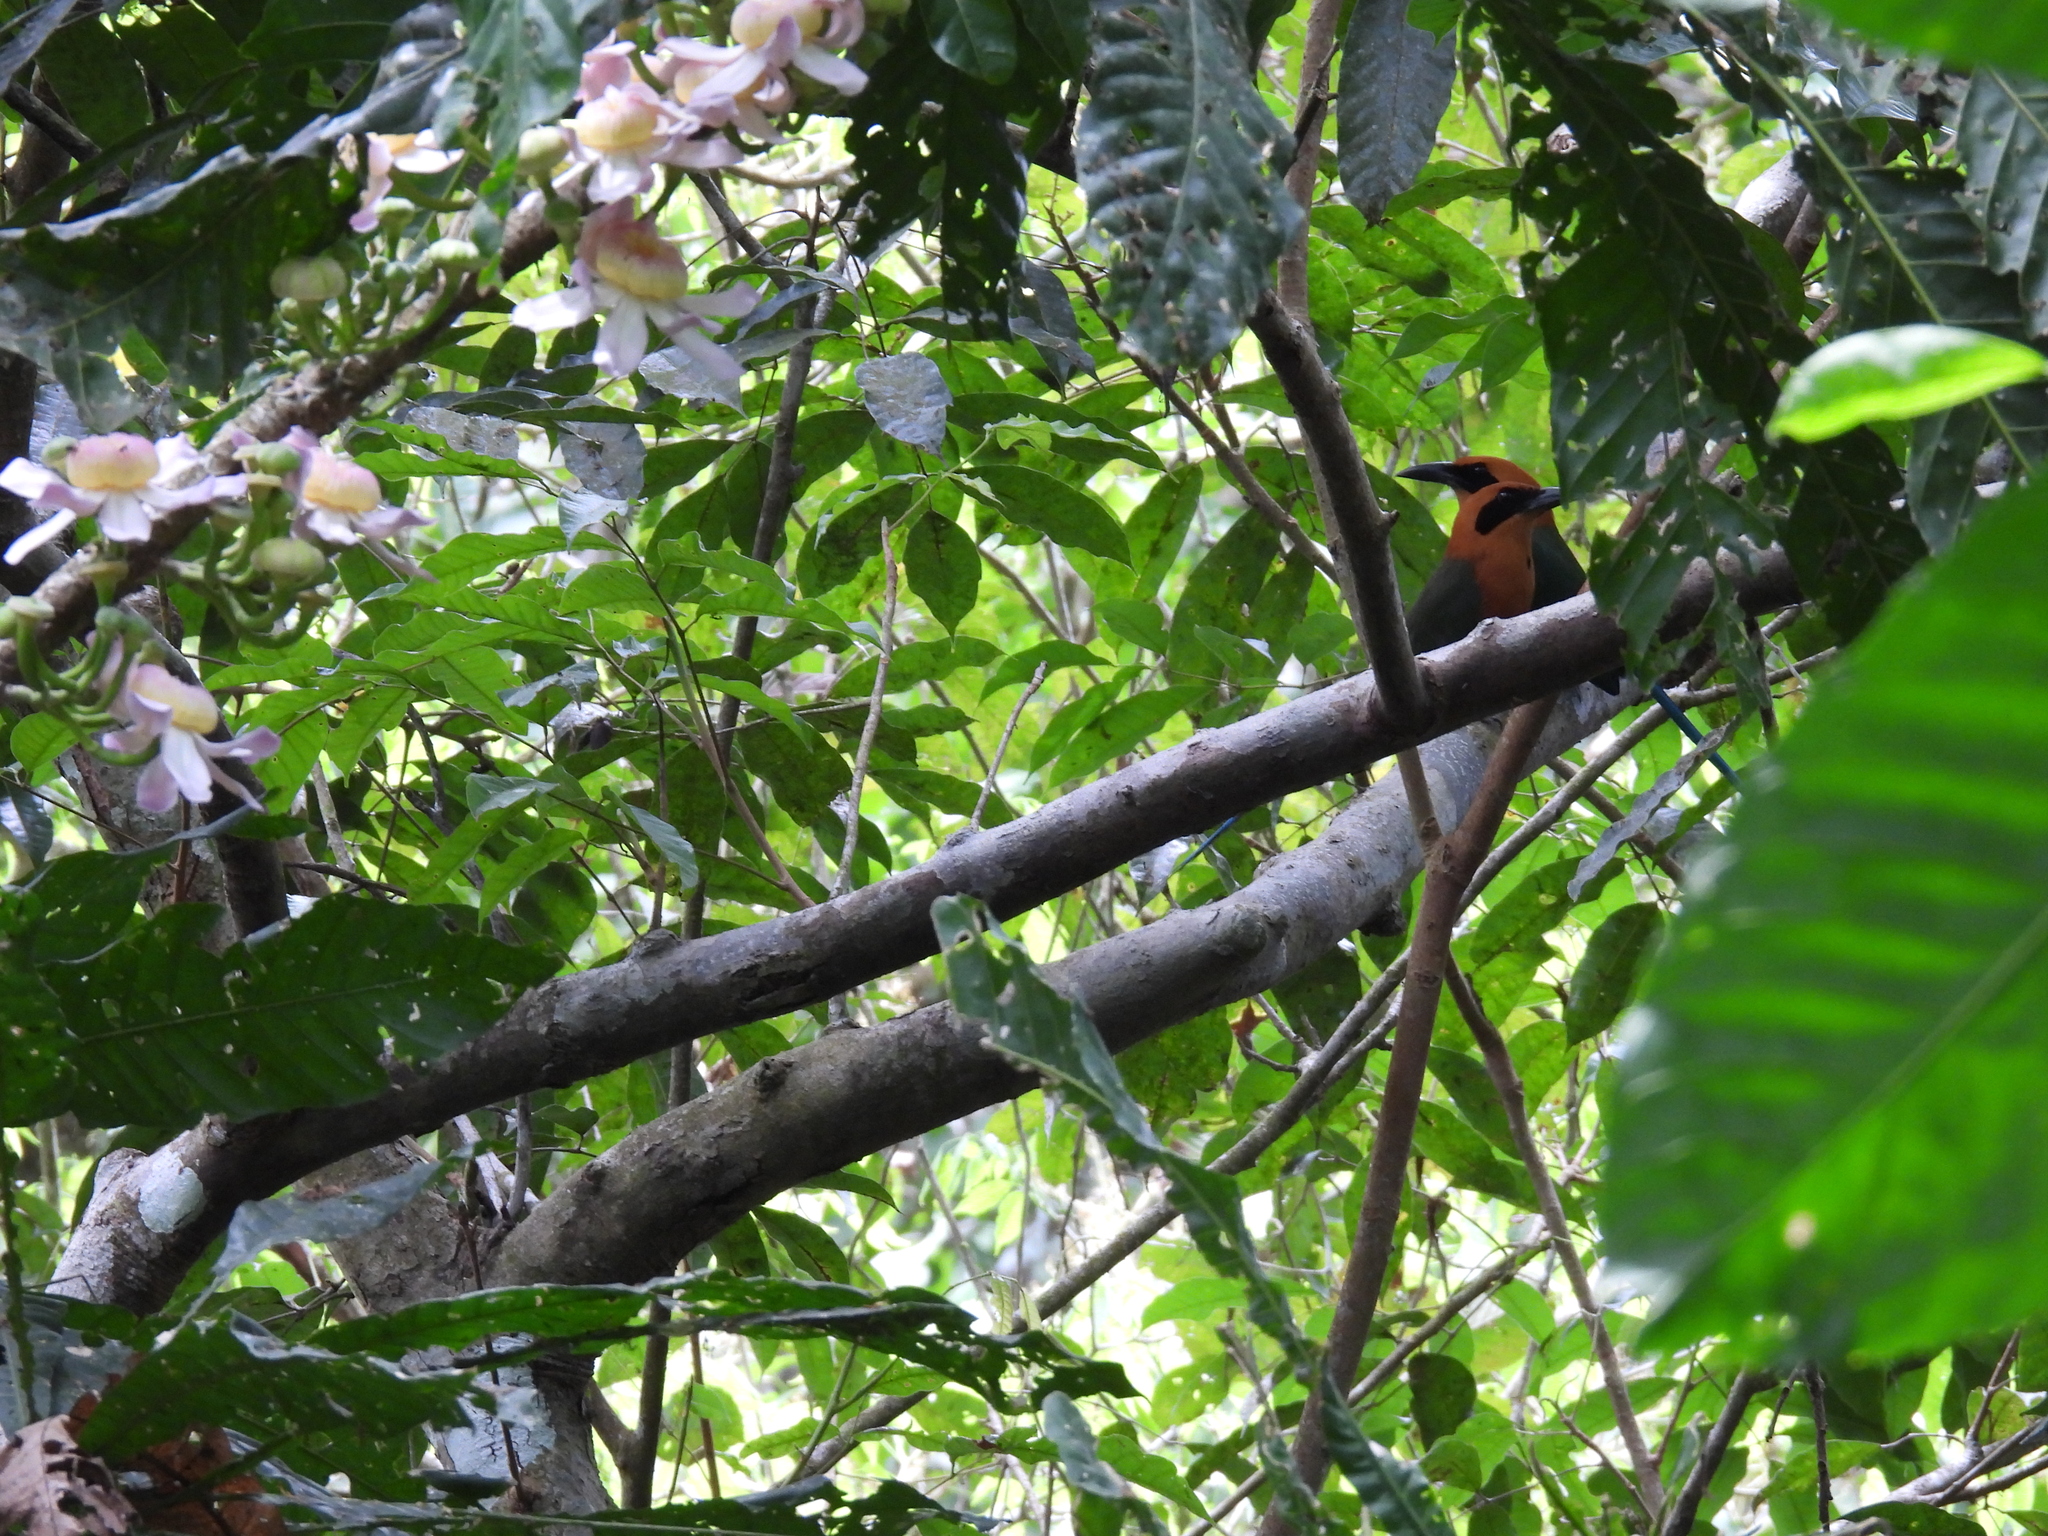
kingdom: Animalia
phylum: Chordata
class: Aves
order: Coraciiformes
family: Momotidae
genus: Baryphthengus
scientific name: Baryphthengus martii
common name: Rufous motmot
